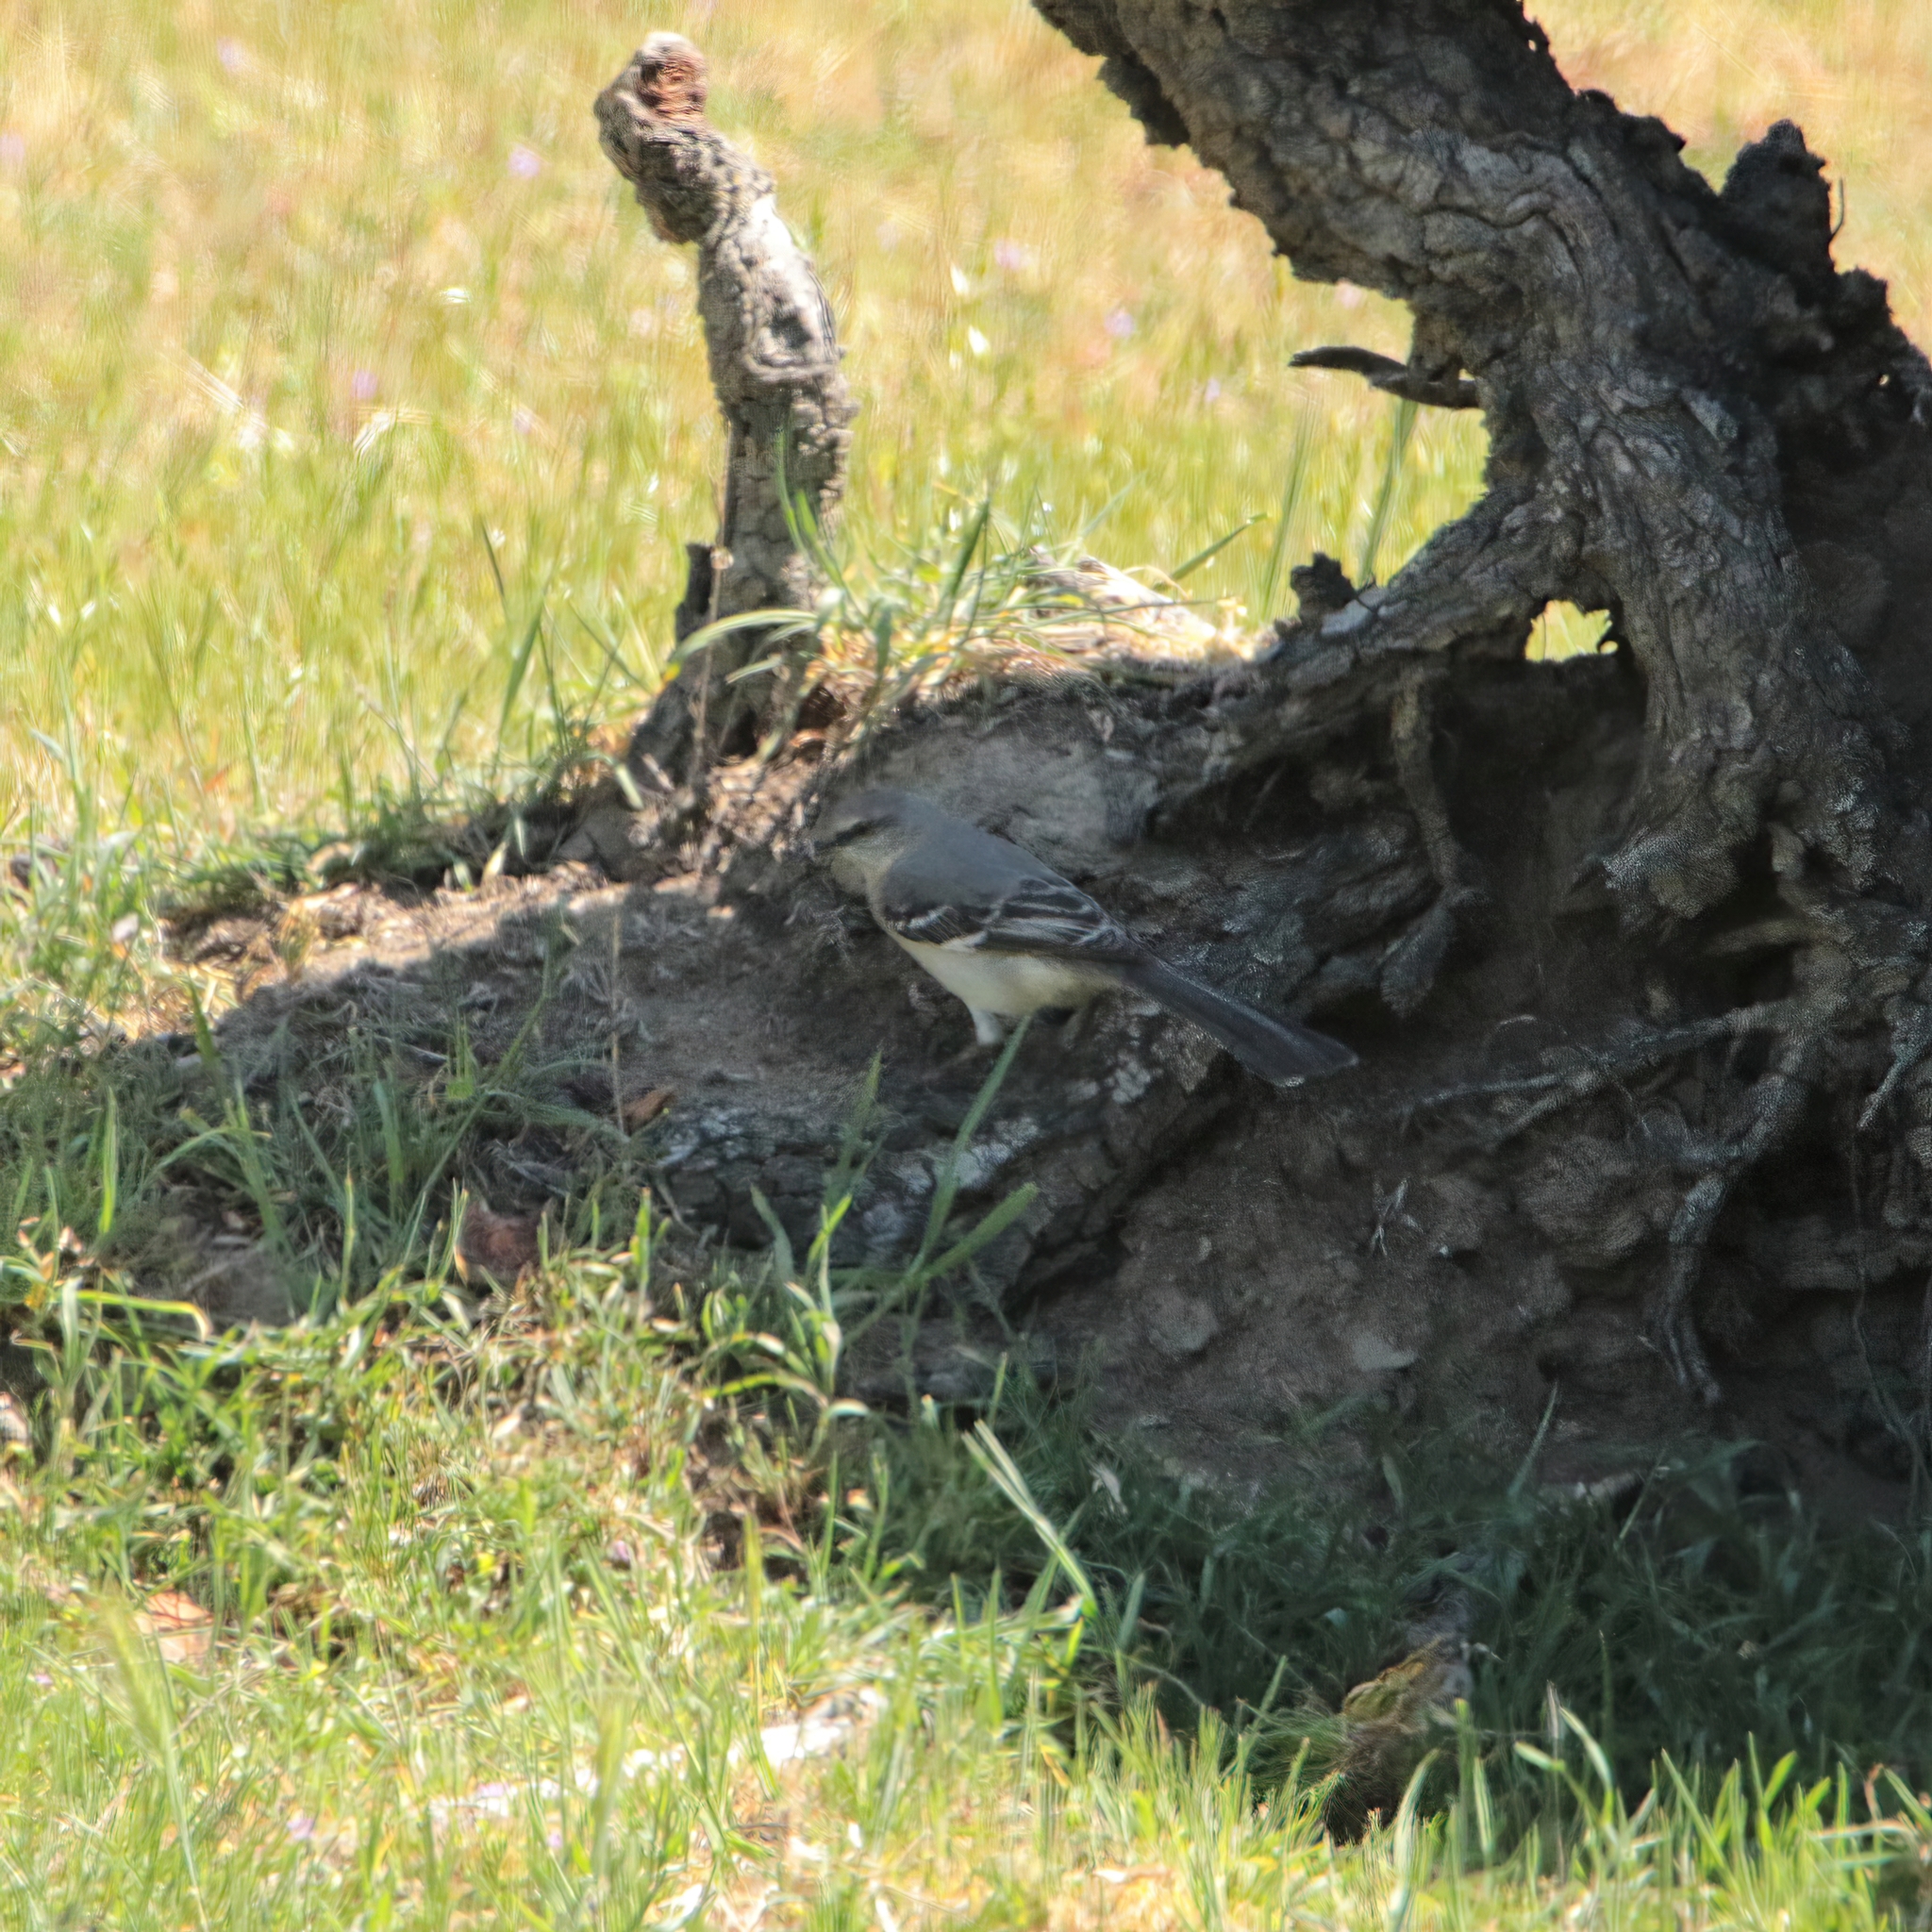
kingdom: Animalia
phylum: Chordata
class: Aves
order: Passeriformes
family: Mimidae
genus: Mimus
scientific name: Mimus polyglottos
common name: Northern mockingbird
